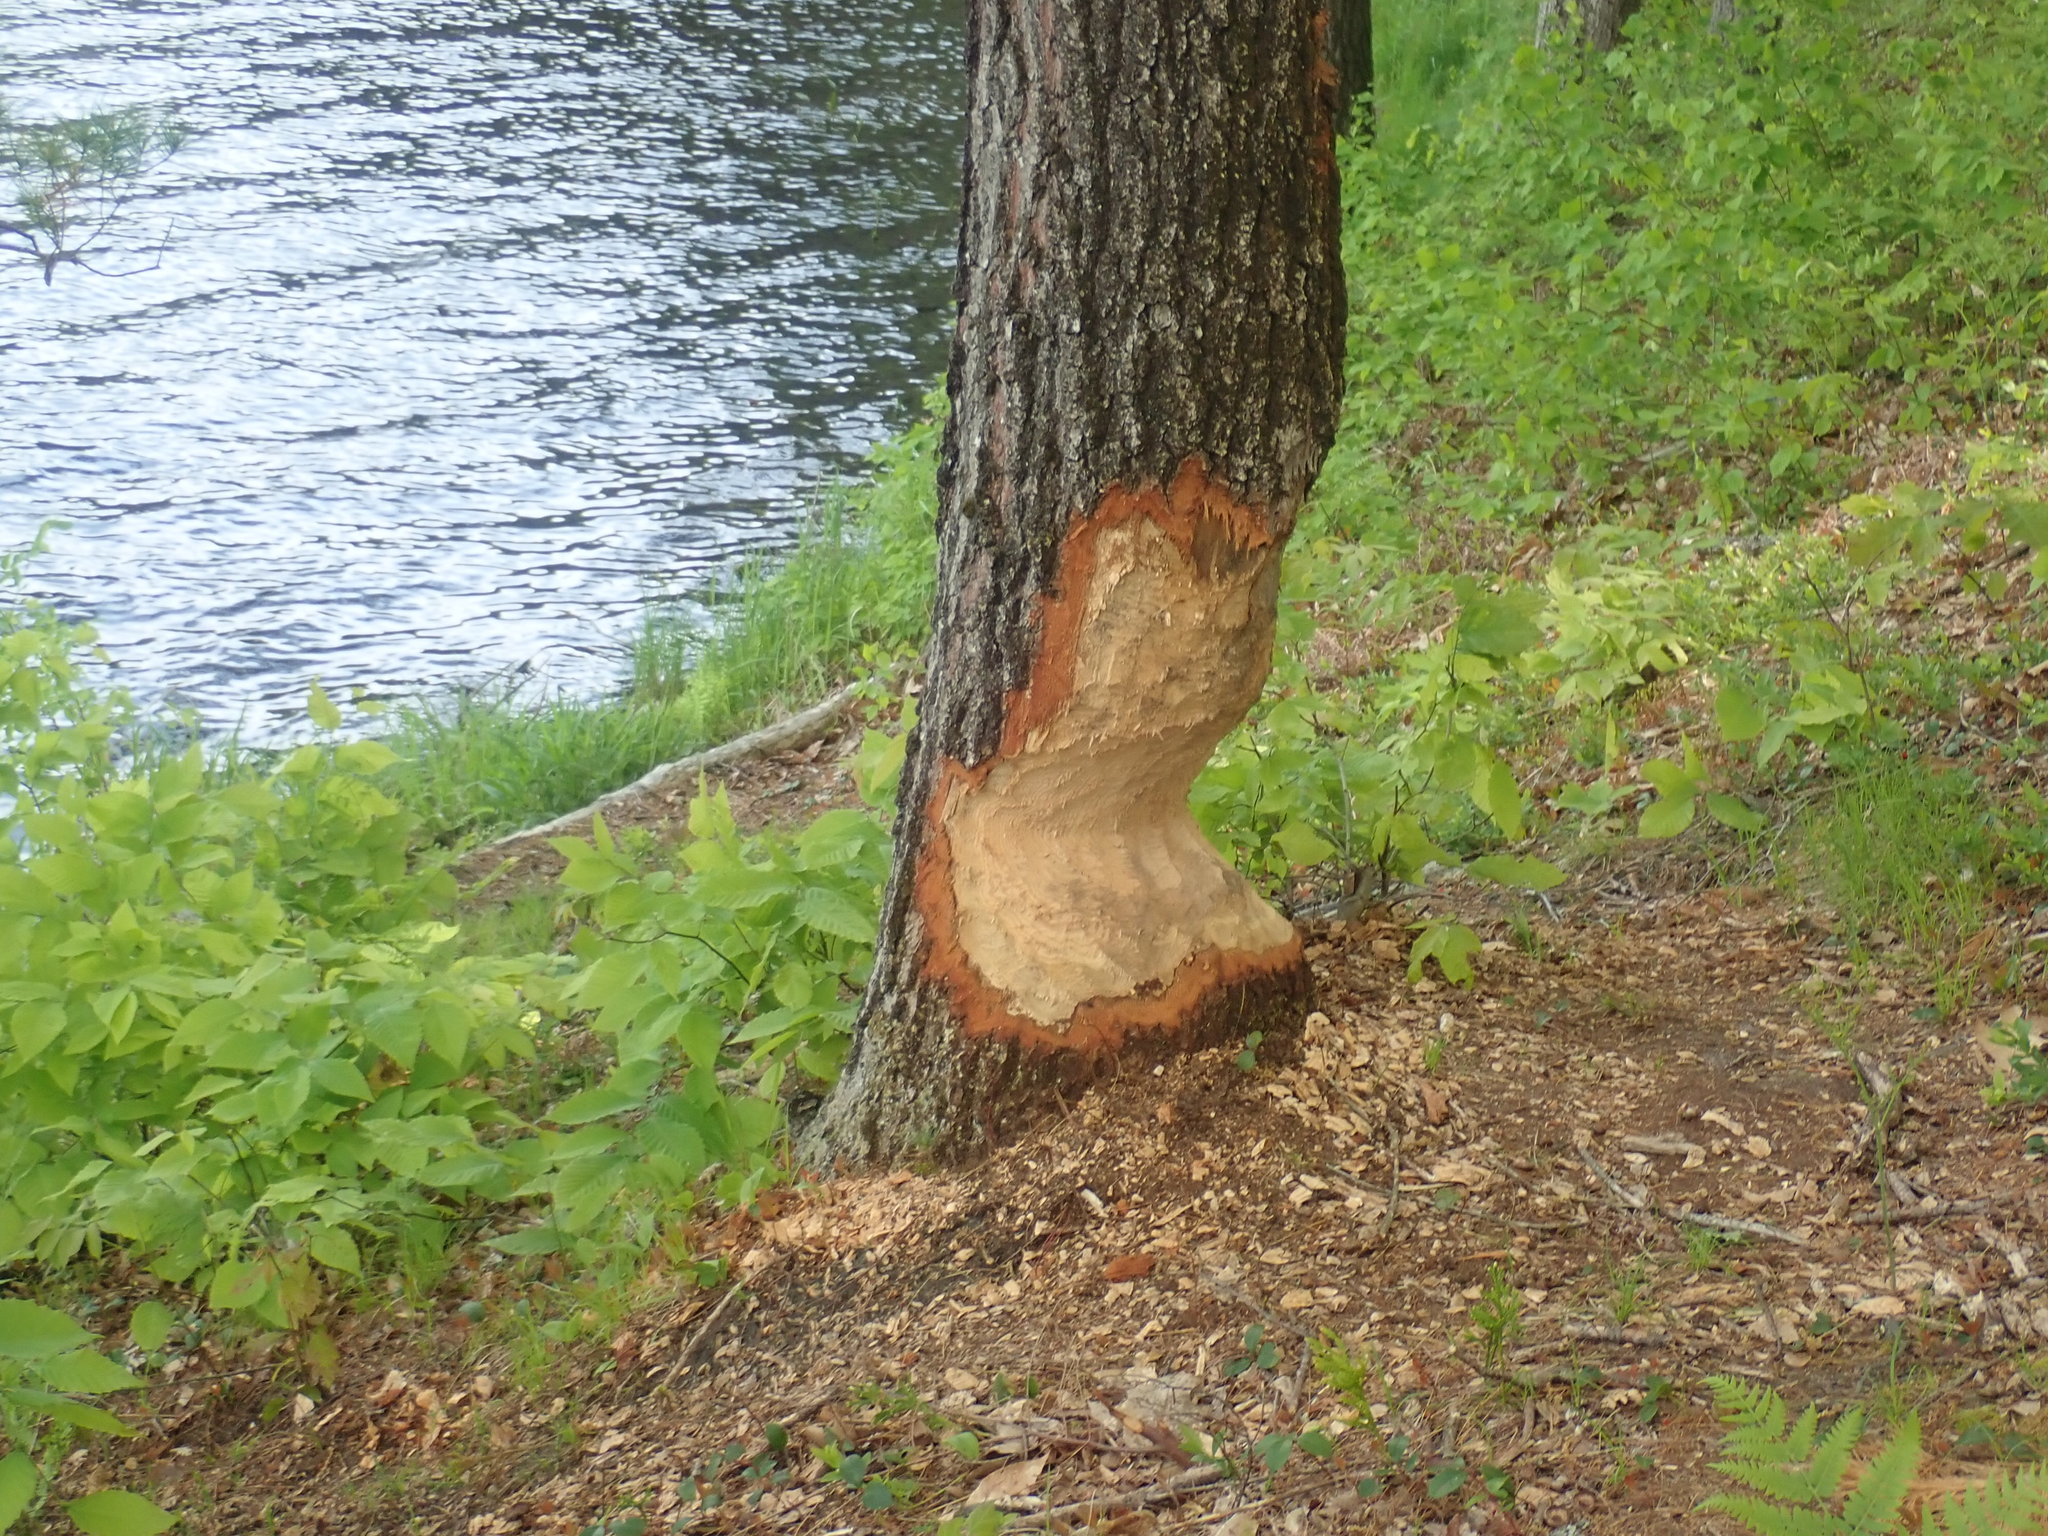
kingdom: Animalia
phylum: Chordata
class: Mammalia
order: Rodentia
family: Castoridae
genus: Castor
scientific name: Castor canadensis
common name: American beaver
